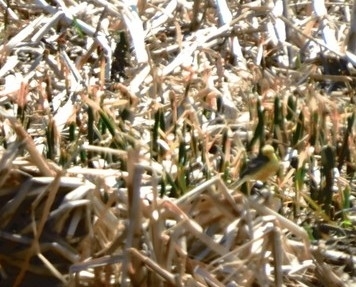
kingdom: Animalia
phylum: Chordata
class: Aves
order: Passeriformes
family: Motacillidae
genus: Motacilla
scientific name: Motacilla citreola
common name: Citrine wagtail
